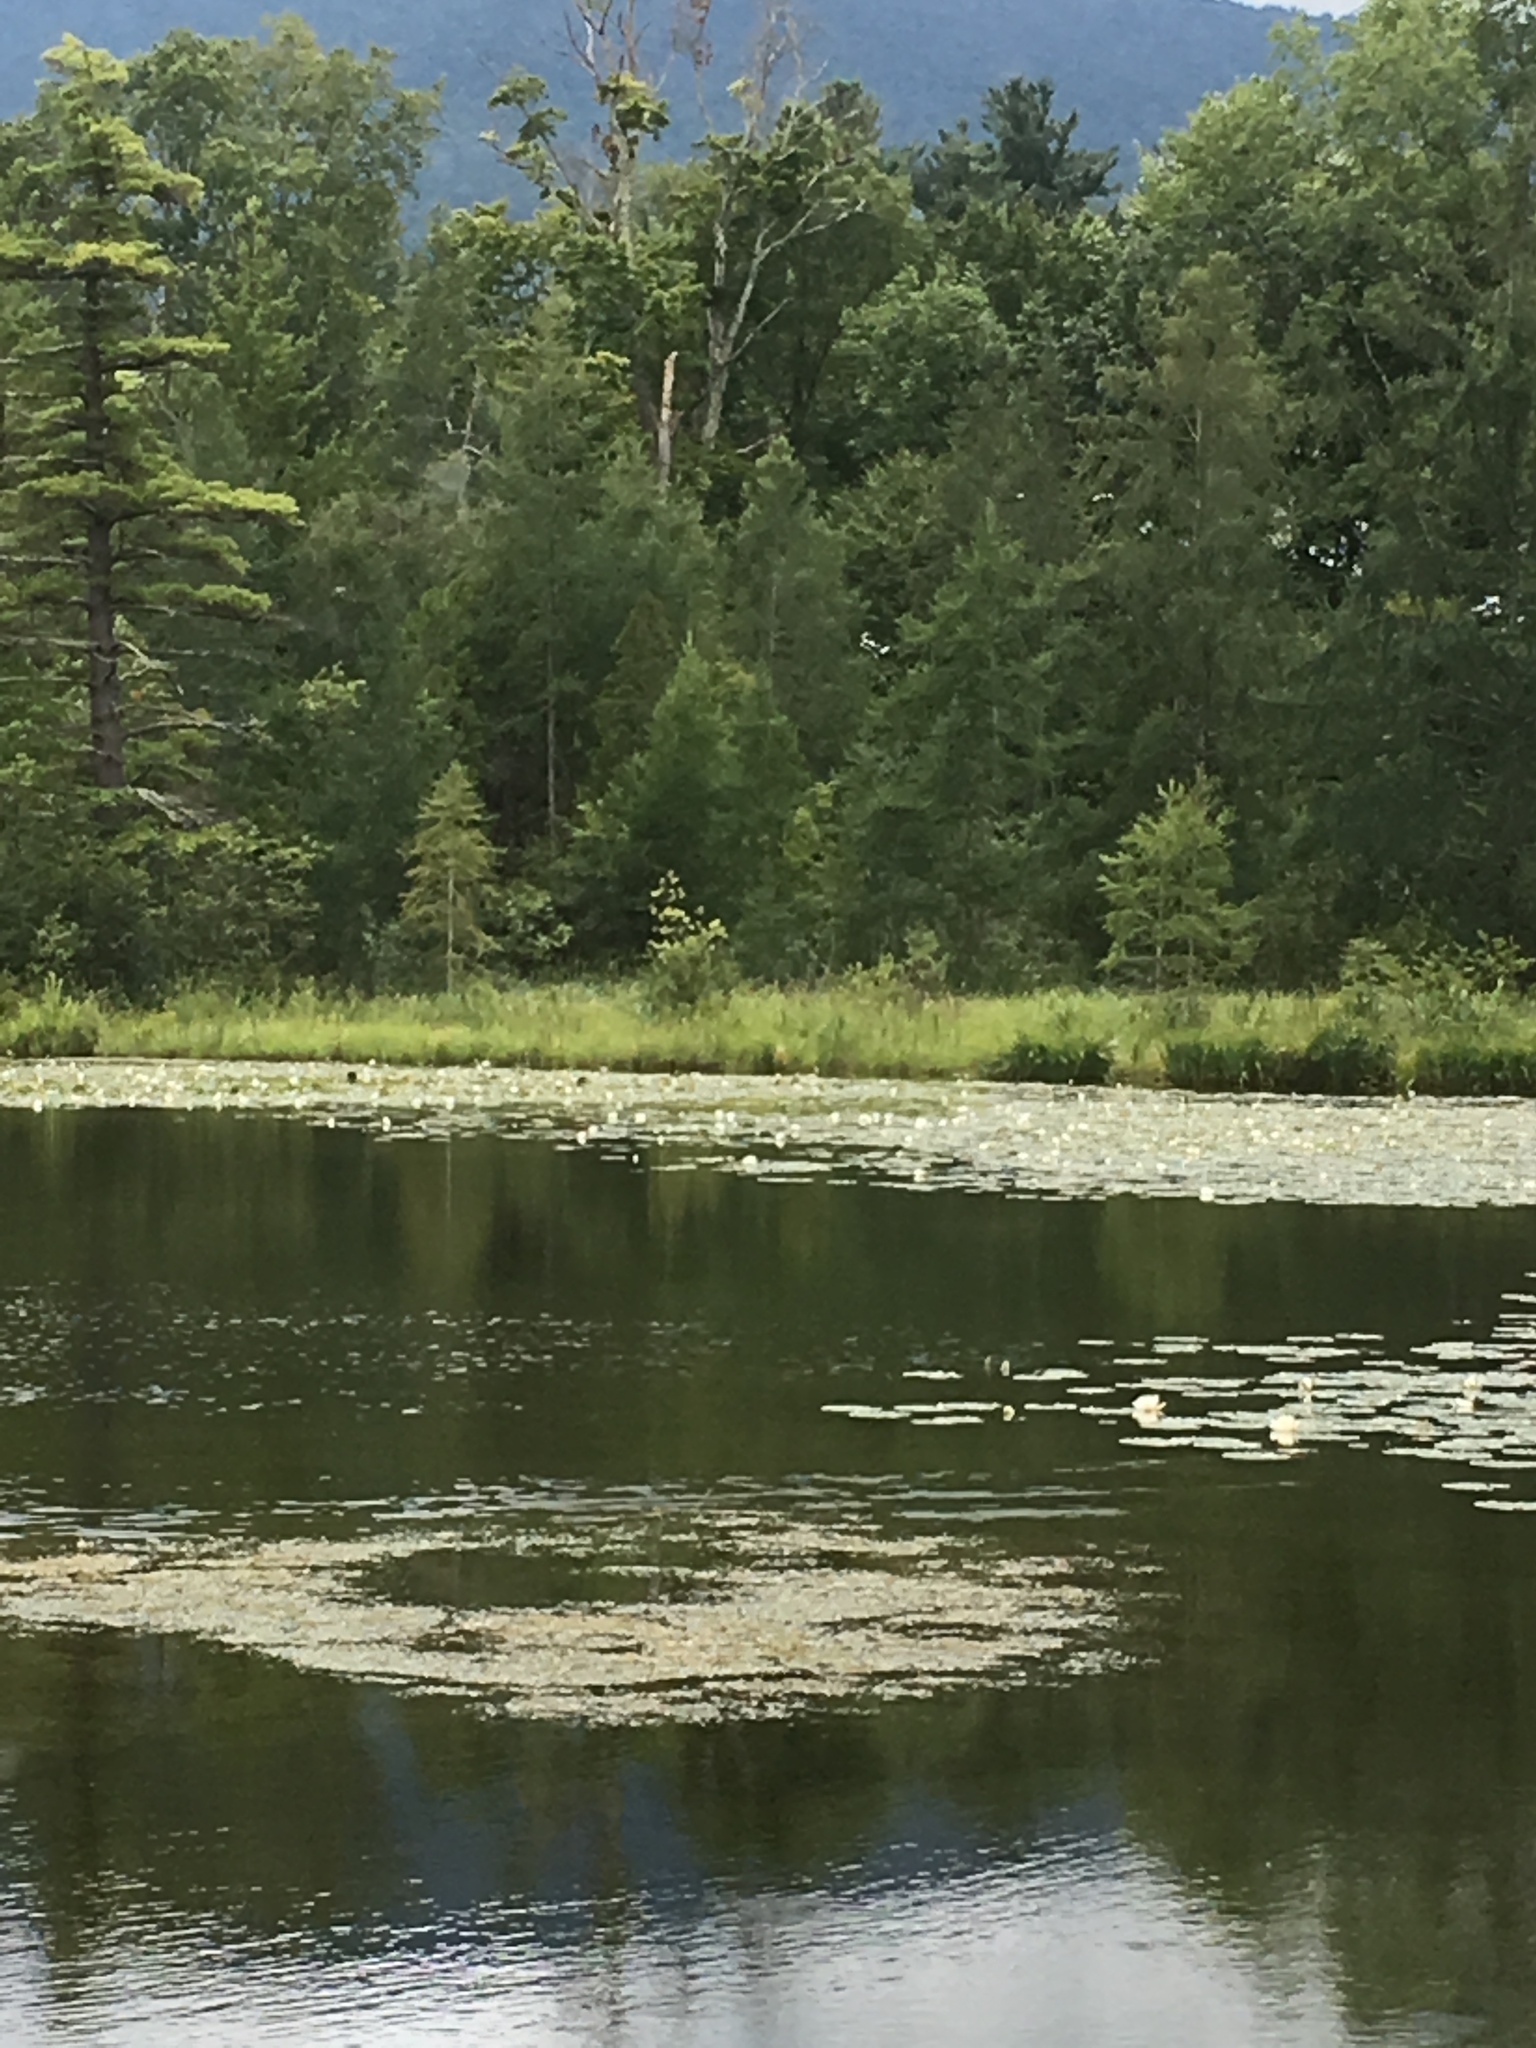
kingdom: Plantae
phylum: Tracheophyta
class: Pinopsida
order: Pinales
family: Pinaceae
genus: Larix
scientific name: Larix laricina
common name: American larch
